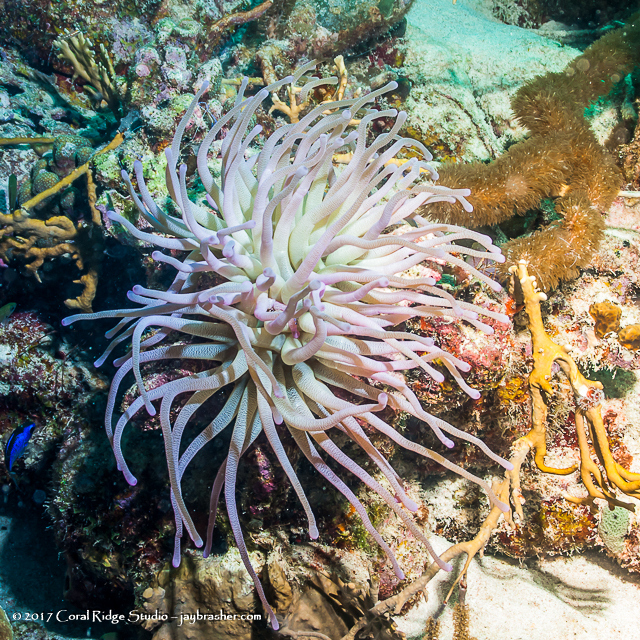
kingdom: Animalia
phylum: Cnidaria
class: Anthozoa
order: Actiniaria
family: Actiniidae
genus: Condylactis
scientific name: Condylactis gigantea
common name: Giant caribbean anemone
